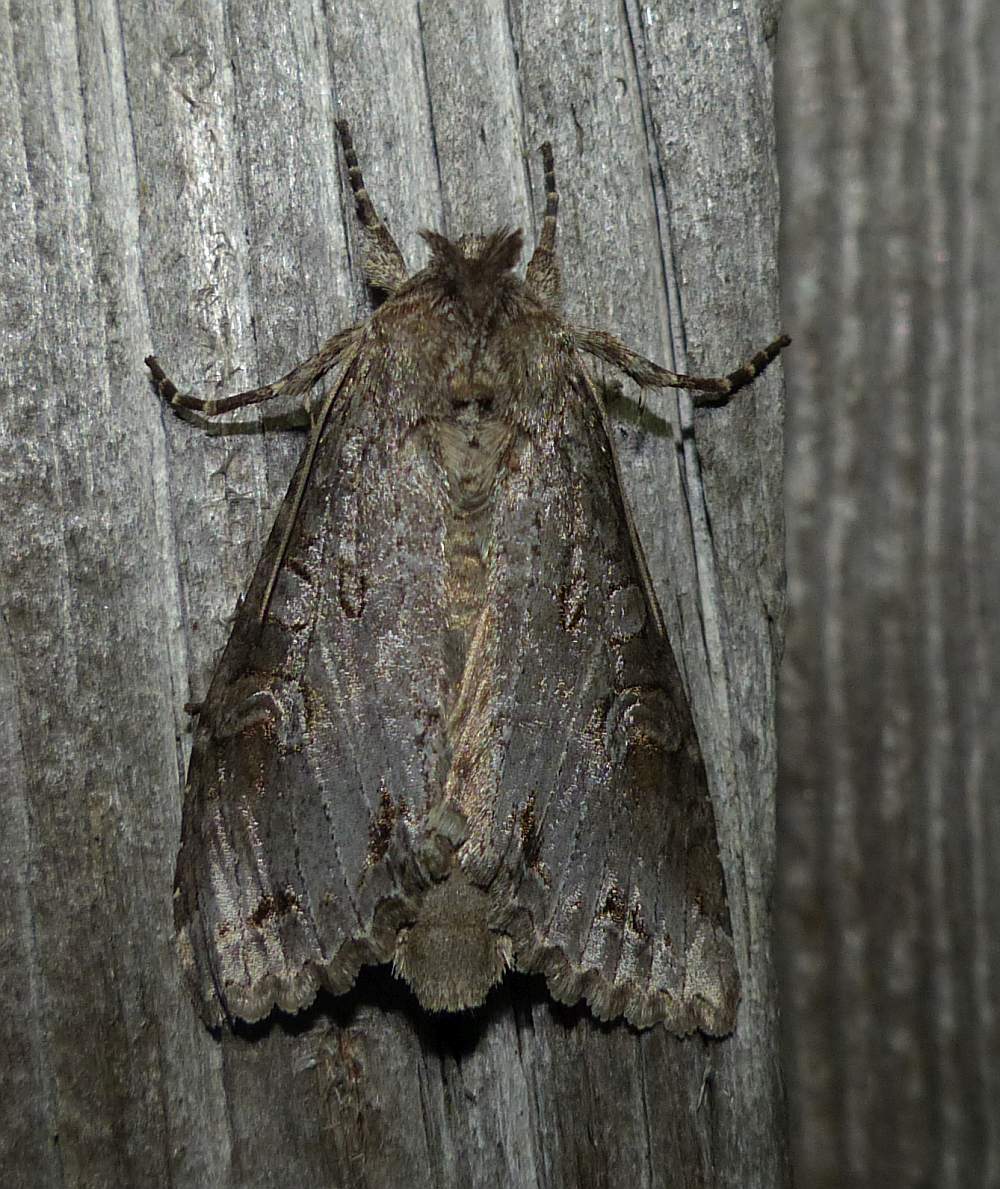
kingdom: Animalia
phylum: Arthropoda
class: Insecta
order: Lepidoptera
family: Noctuidae
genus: Polia
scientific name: Polia purpurissata
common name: Purple arches moth
